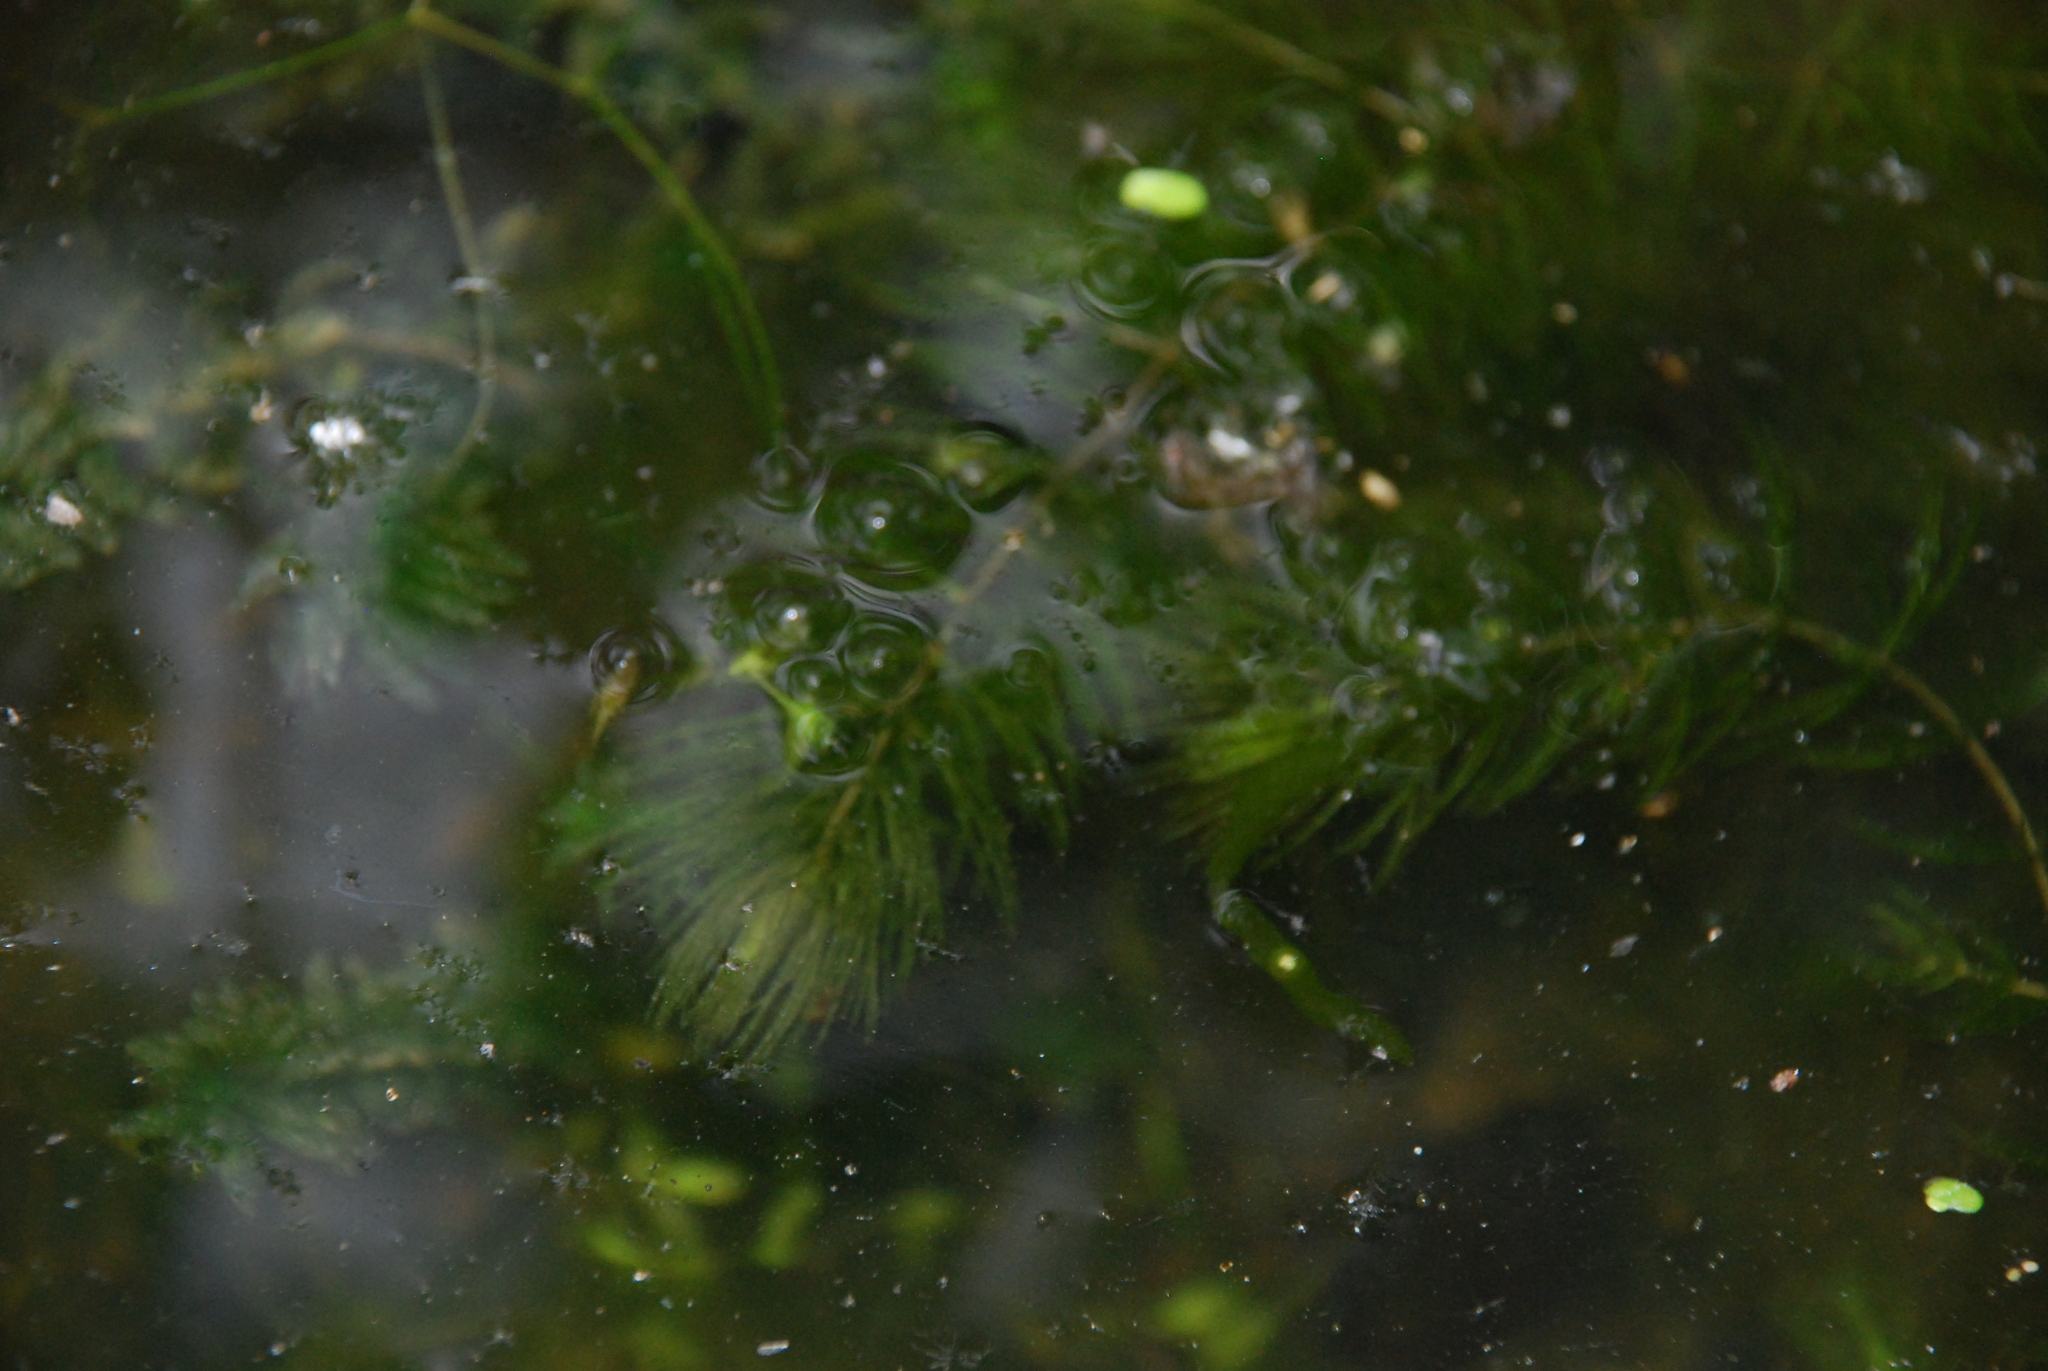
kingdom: Plantae
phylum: Tracheophyta
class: Magnoliopsida
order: Ceratophyllales
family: Ceratophyllaceae
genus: Ceratophyllum
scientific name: Ceratophyllum demersum
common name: Rigid hornwort
